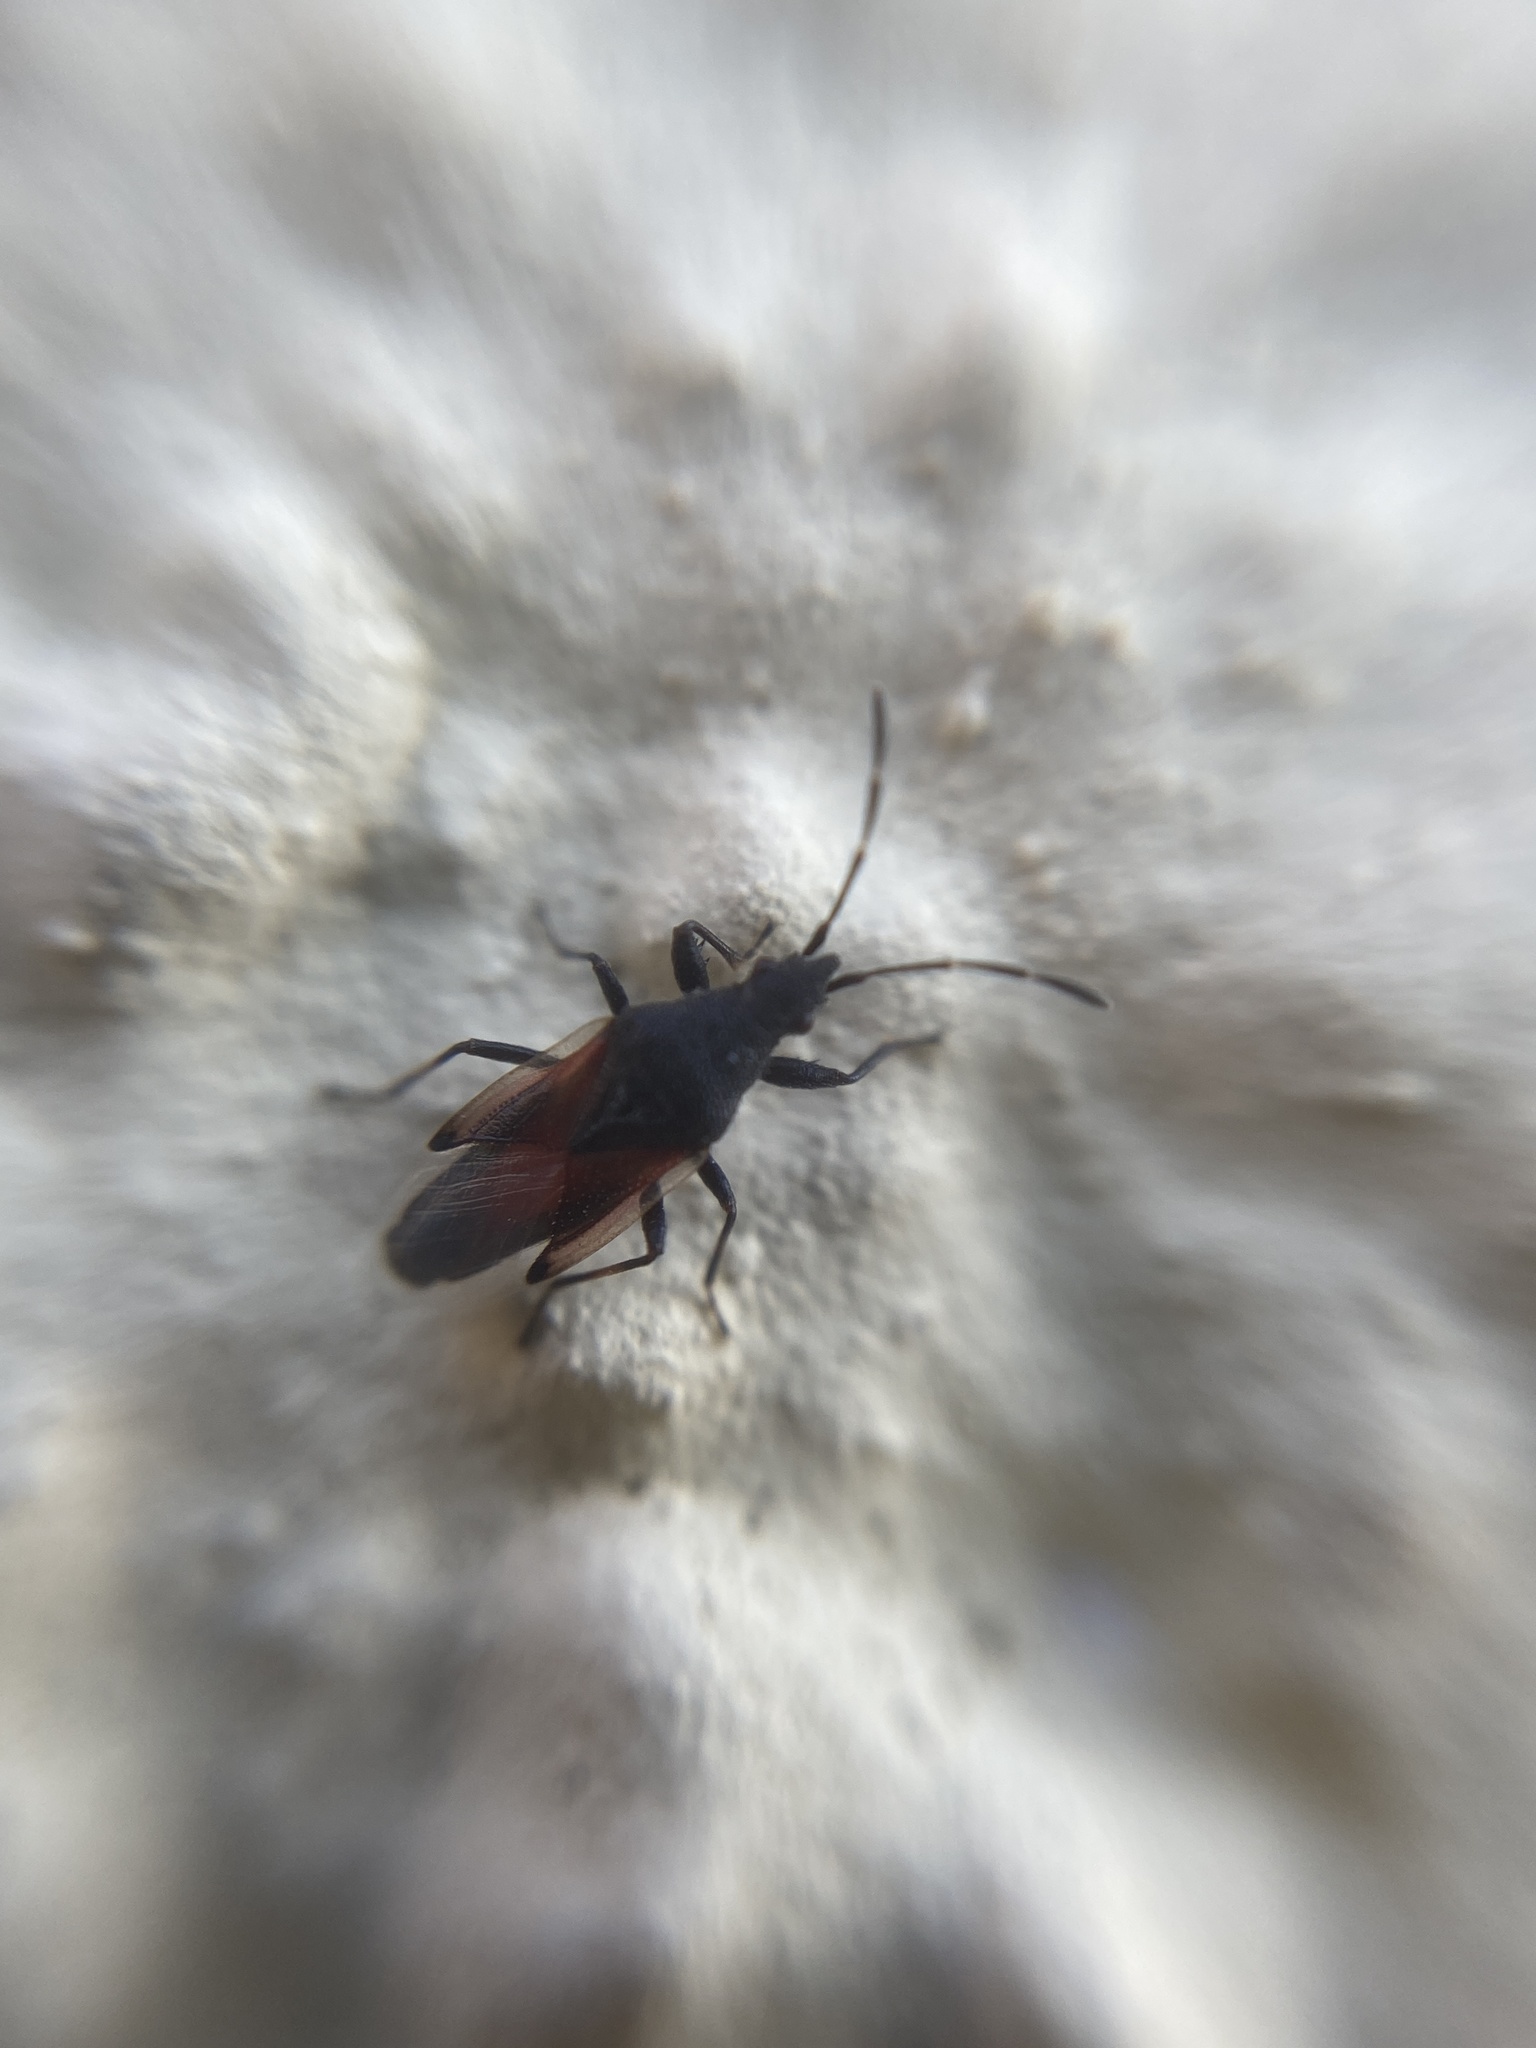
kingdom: Animalia
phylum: Arthropoda
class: Insecta
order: Hemiptera
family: Oxycarenidae
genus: Oxycarenus
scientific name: Oxycarenus lavaterae
